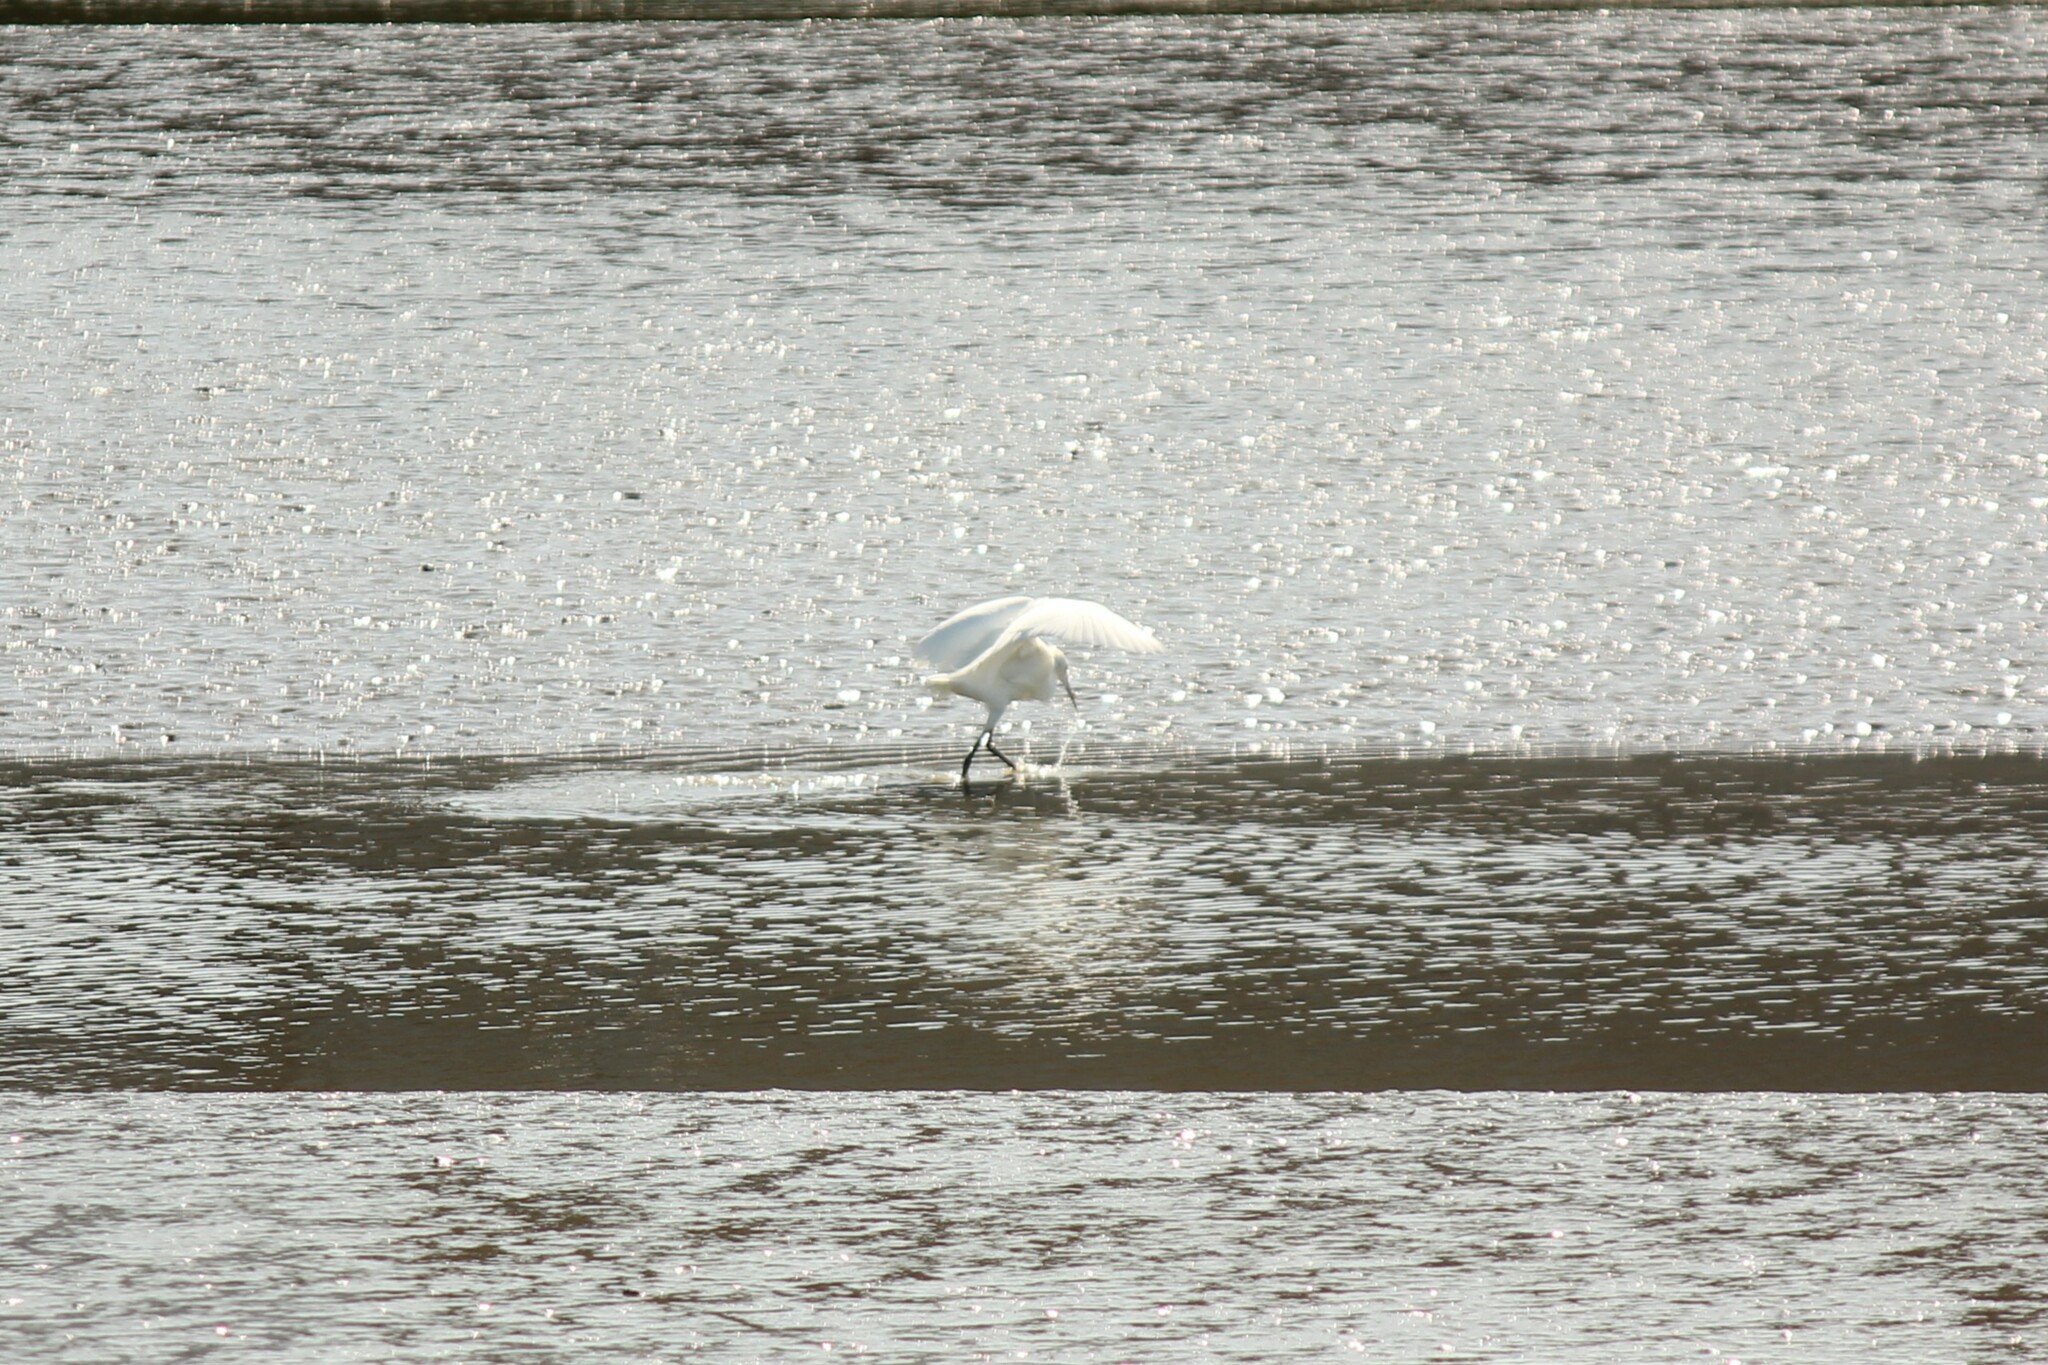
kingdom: Animalia
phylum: Chordata
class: Aves
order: Pelecaniformes
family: Ardeidae
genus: Egretta
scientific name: Egretta thula
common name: Snowy egret
